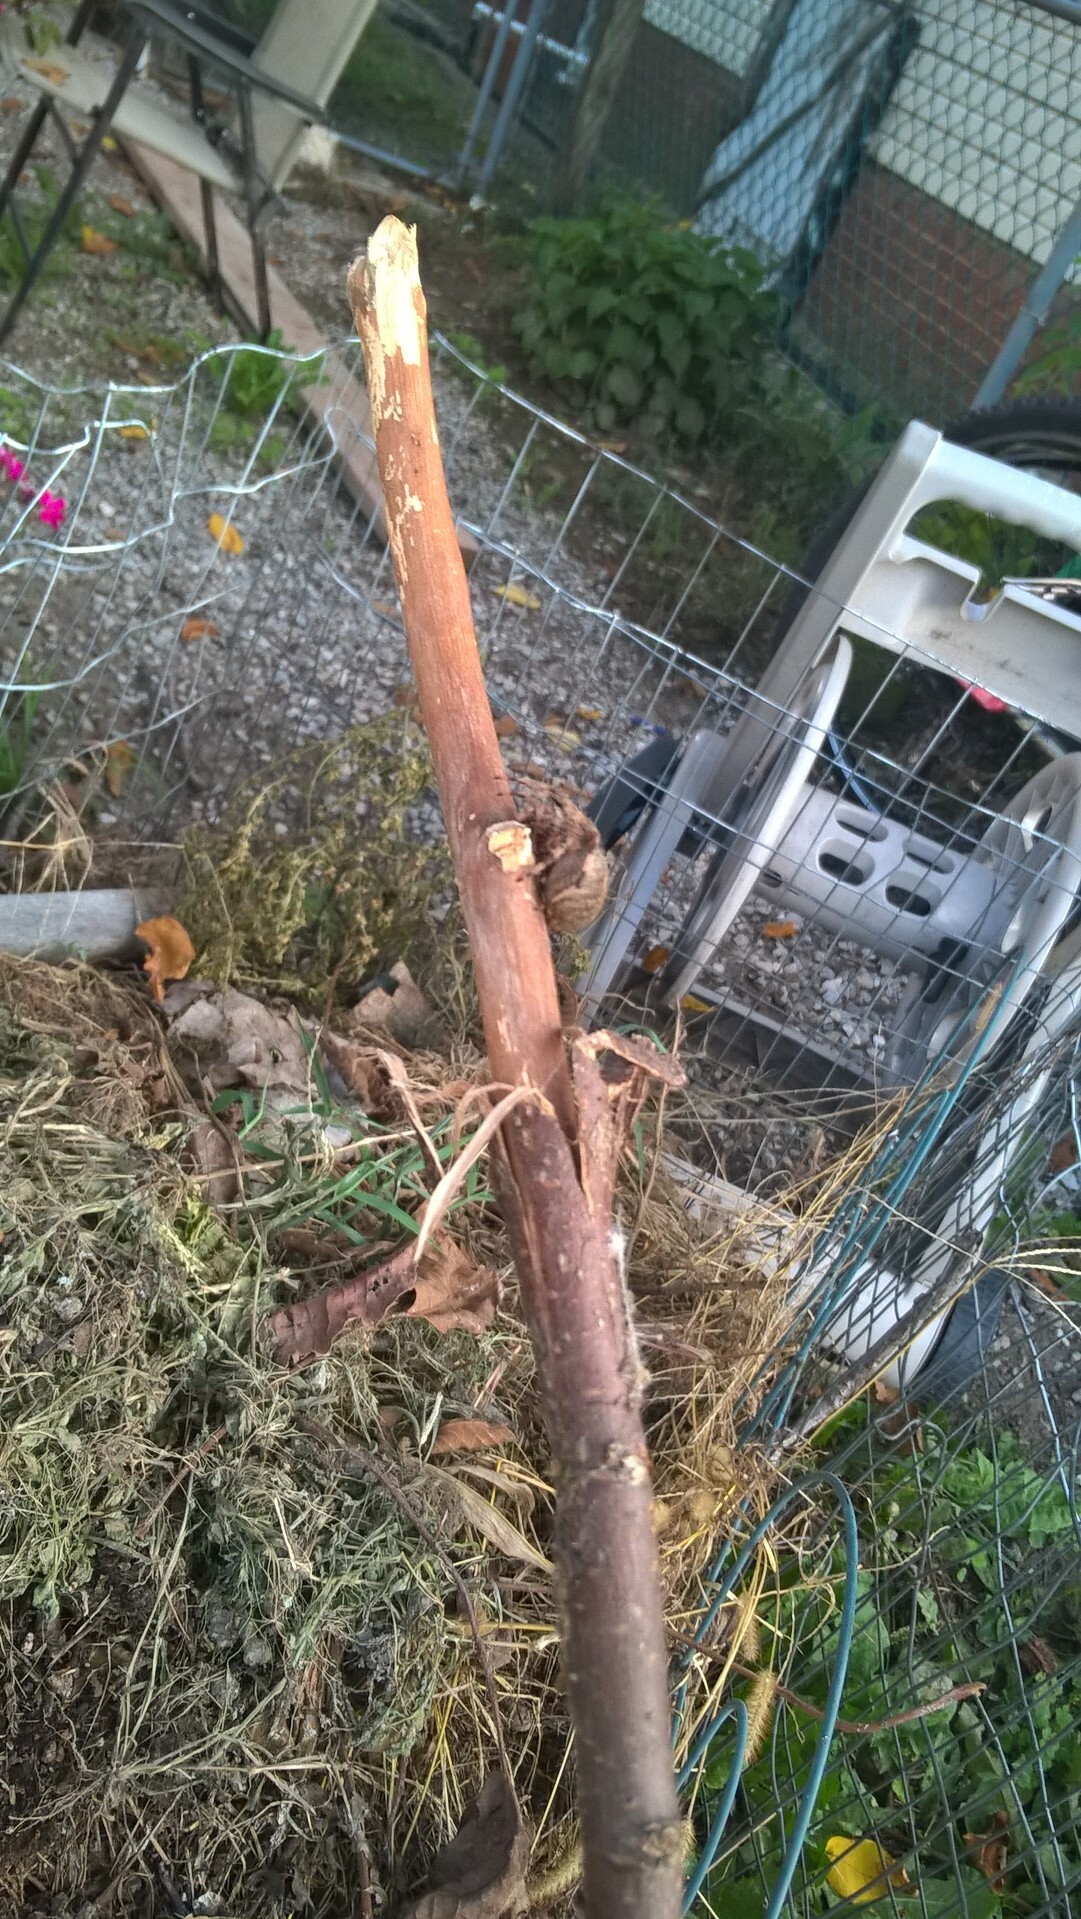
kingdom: Animalia
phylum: Arthropoda
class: Arachnida
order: Araneae
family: Araneidae
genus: Neoscona
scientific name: Neoscona crucifera
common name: Spotted orbweaver
